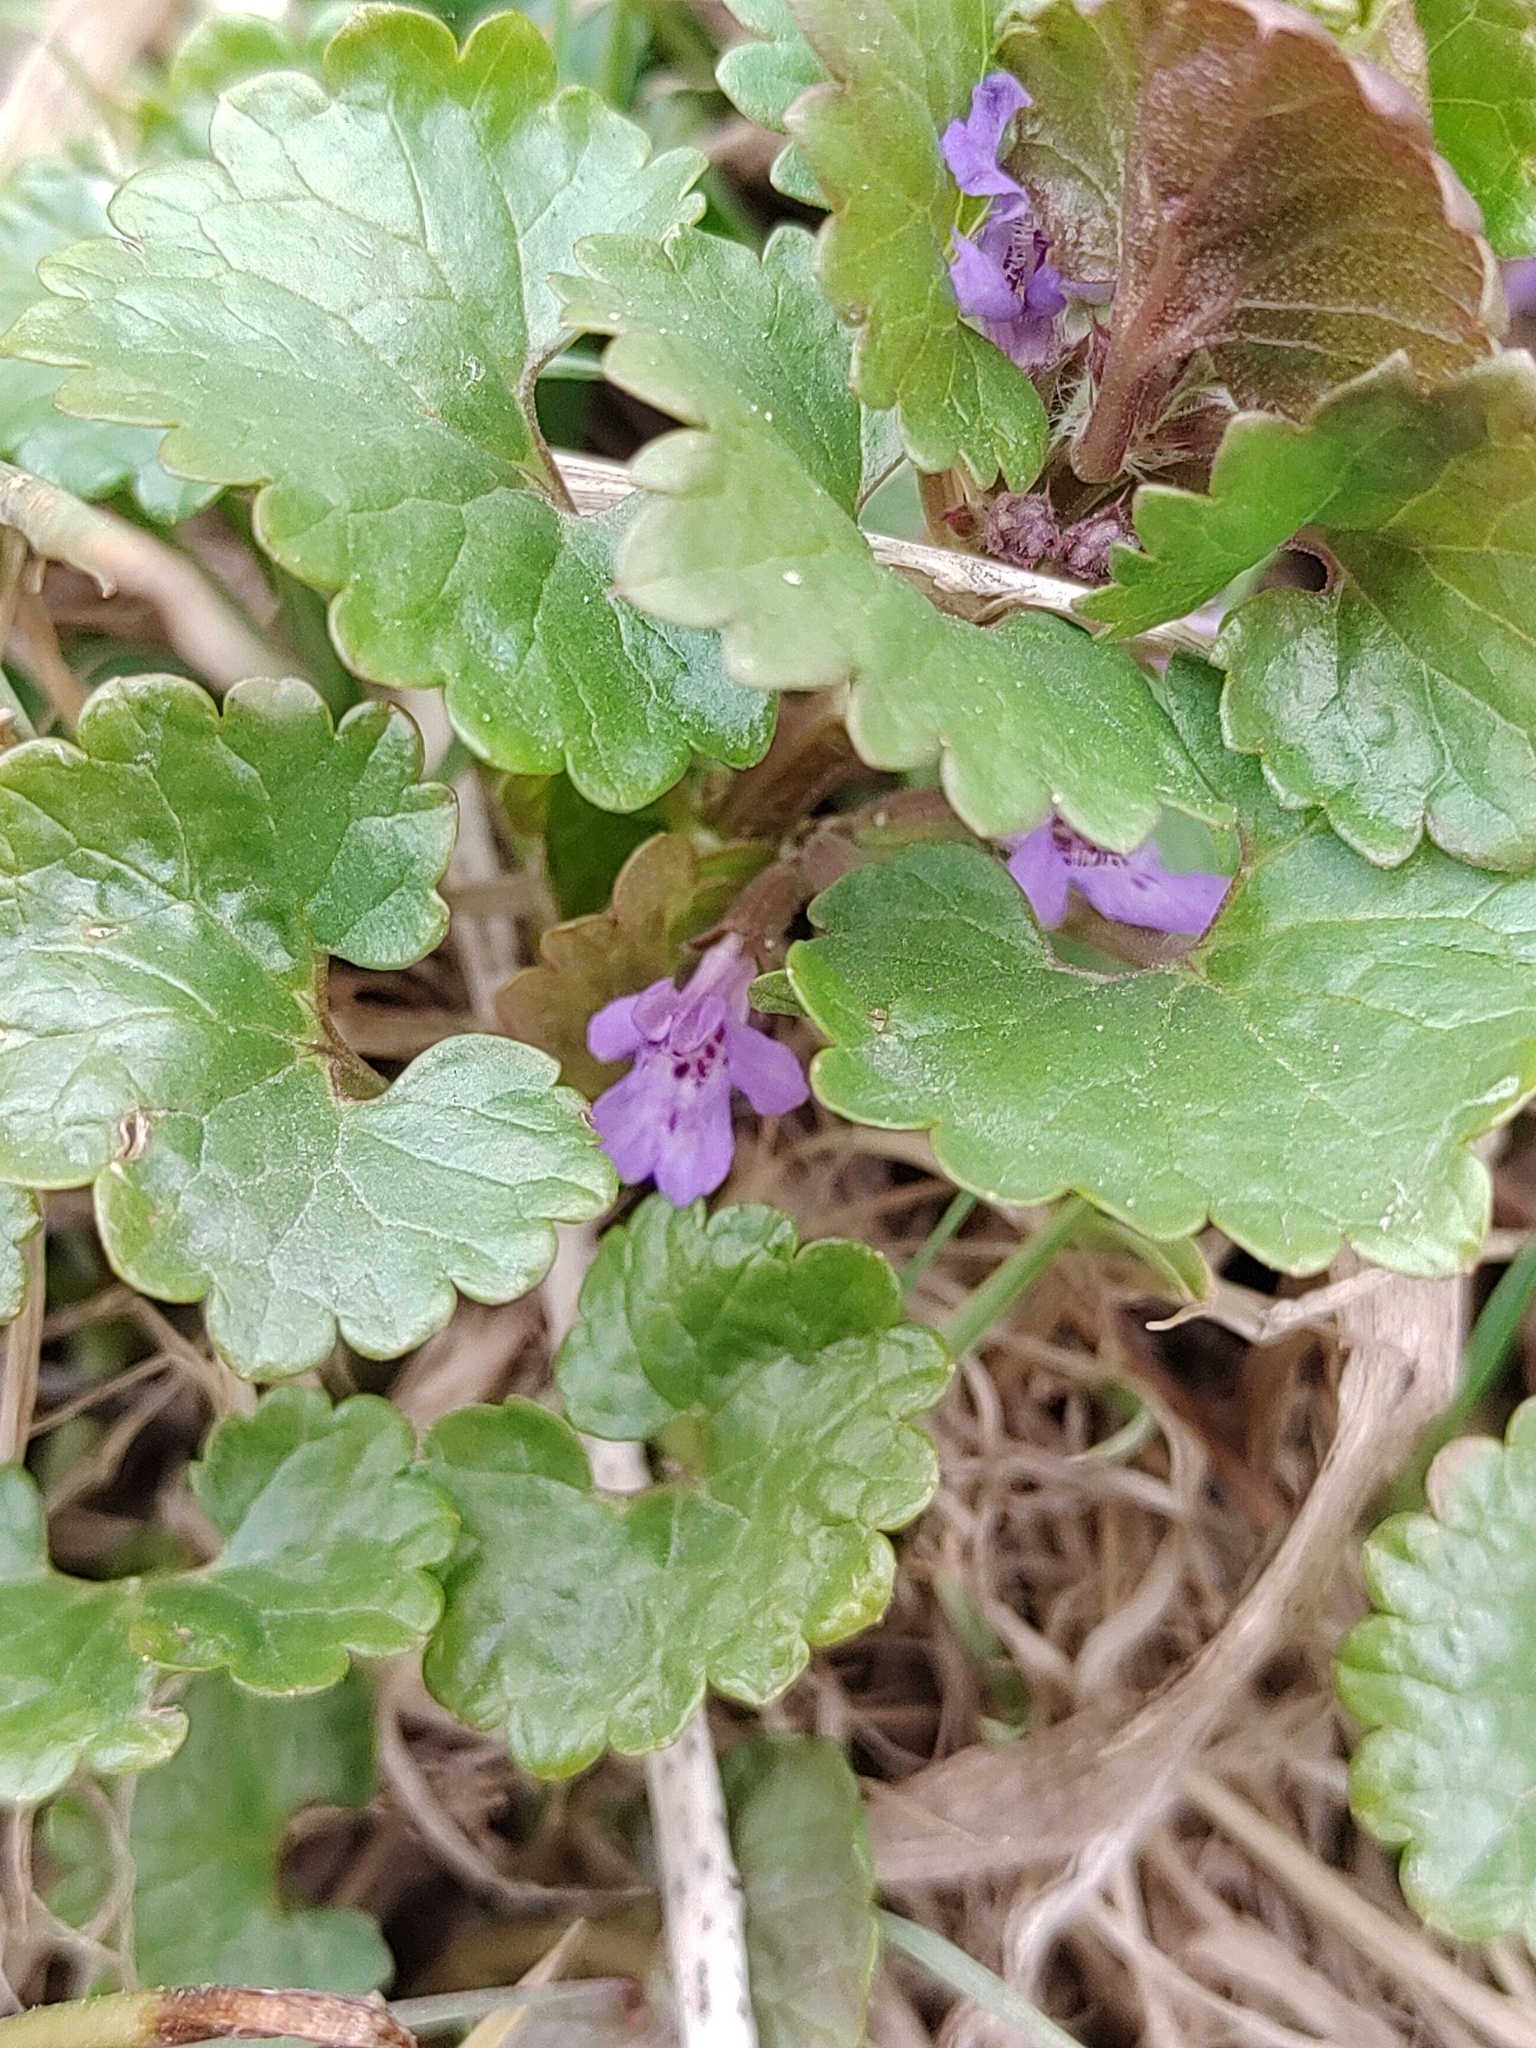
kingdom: Plantae
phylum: Tracheophyta
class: Magnoliopsida
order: Lamiales
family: Lamiaceae
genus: Glechoma
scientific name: Glechoma hederacea
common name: Ground ivy
